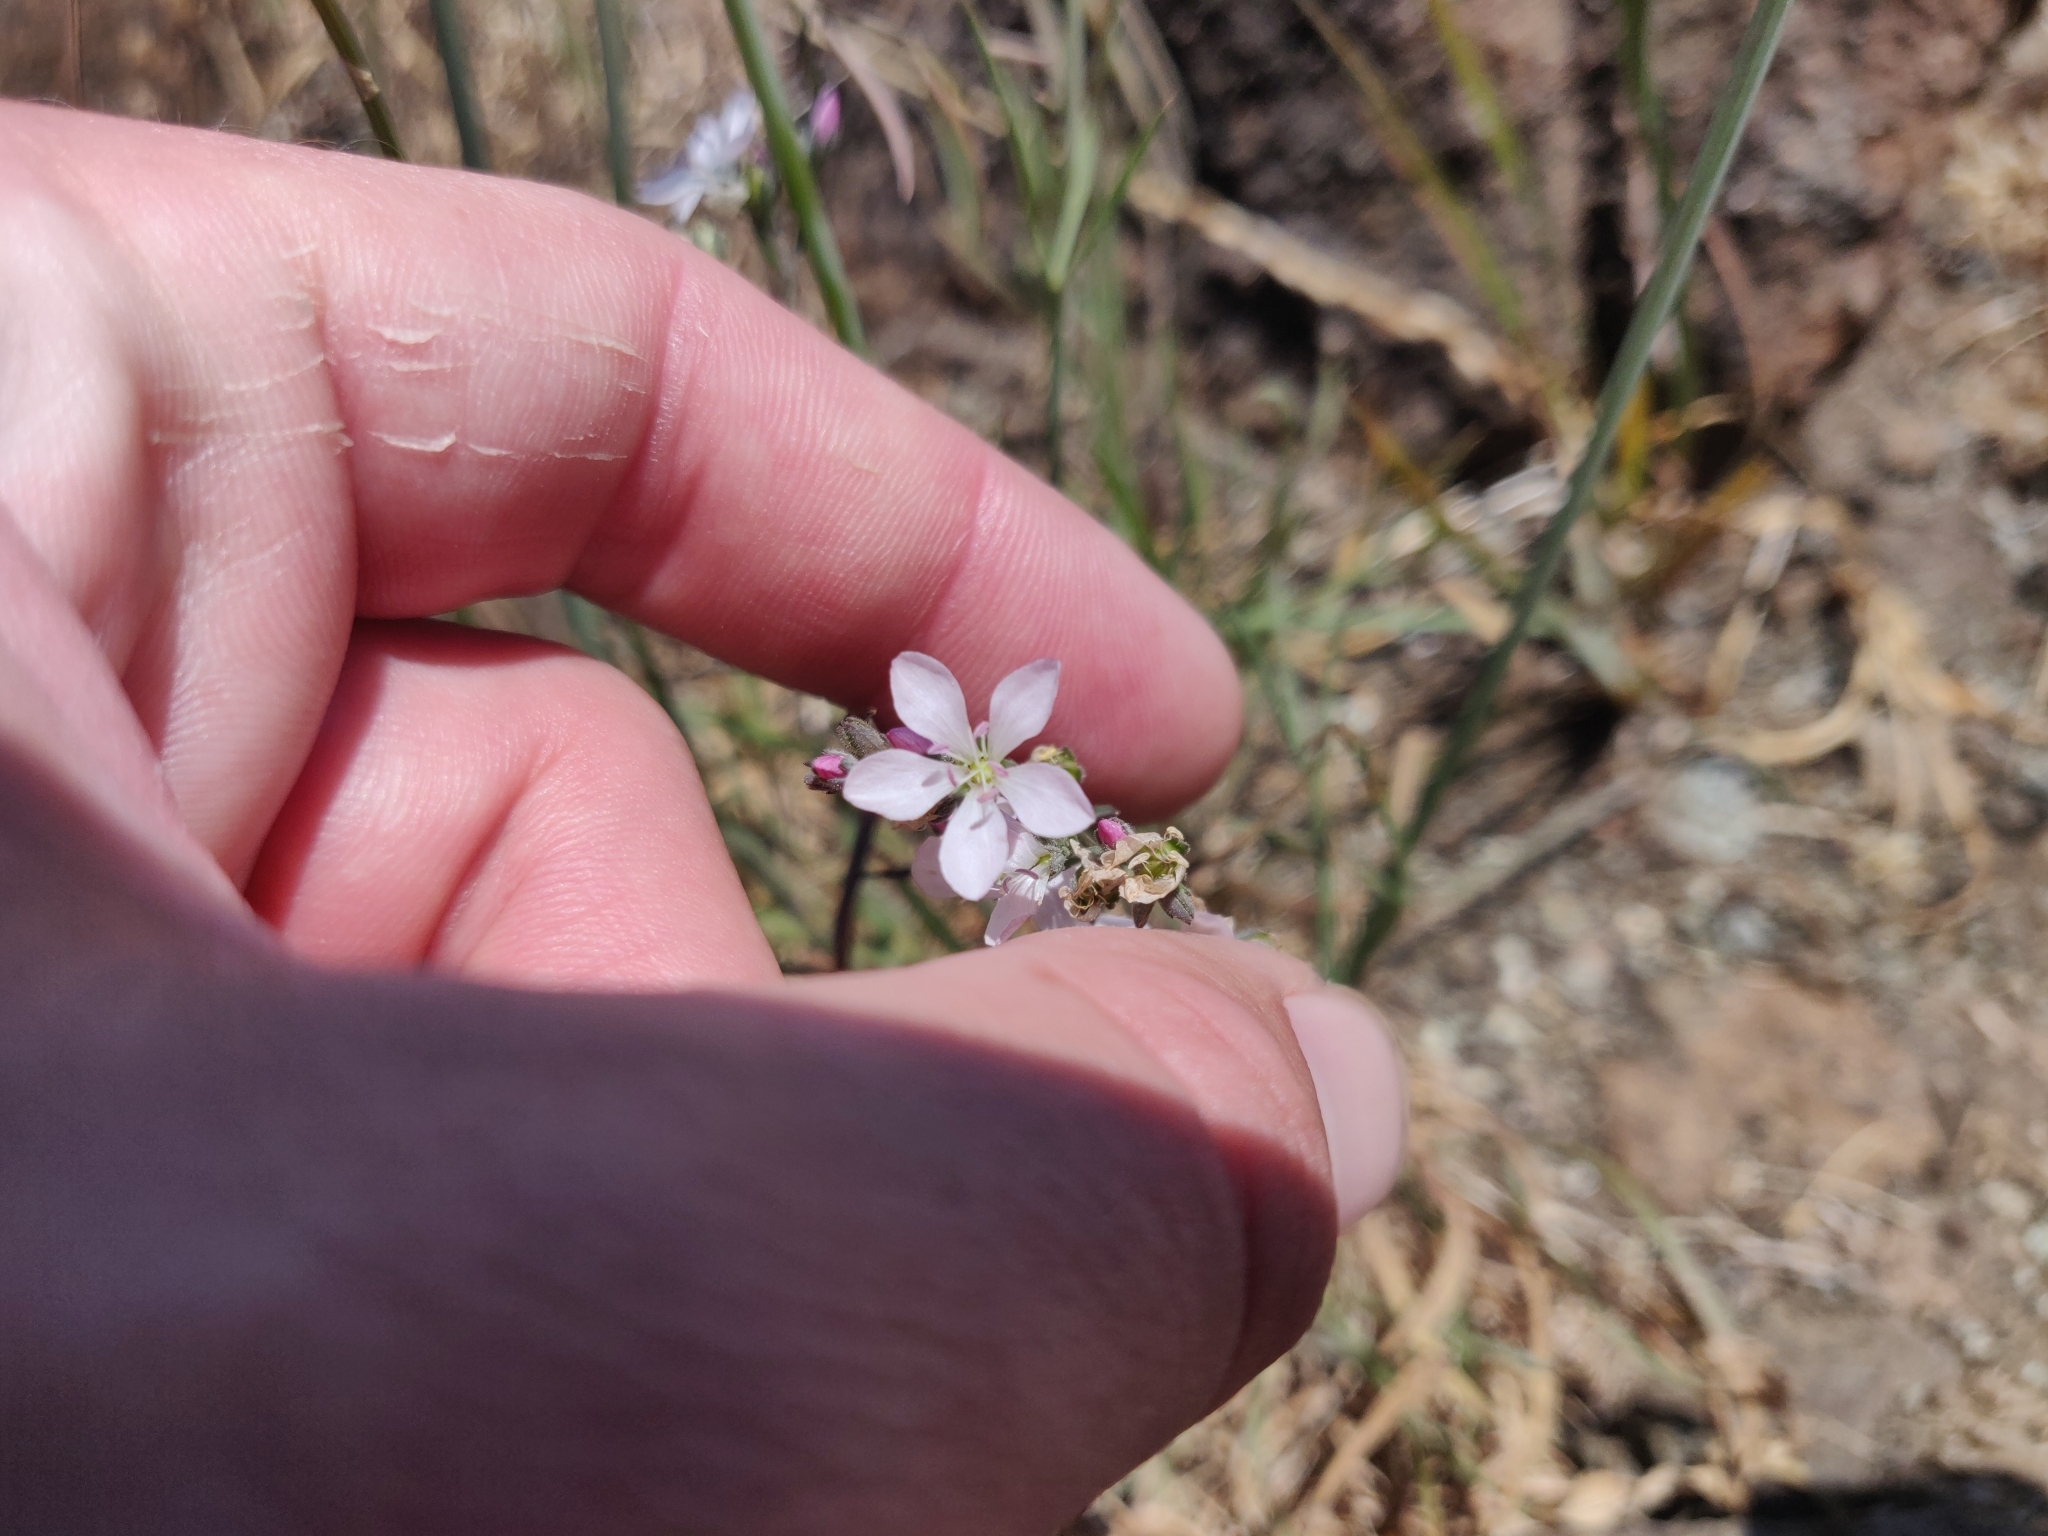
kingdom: Plantae
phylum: Tracheophyta
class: Magnoliopsida
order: Malpighiales
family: Linaceae
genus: Hesperolinon
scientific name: Hesperolinon congestum
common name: Marin dwarf-flax
